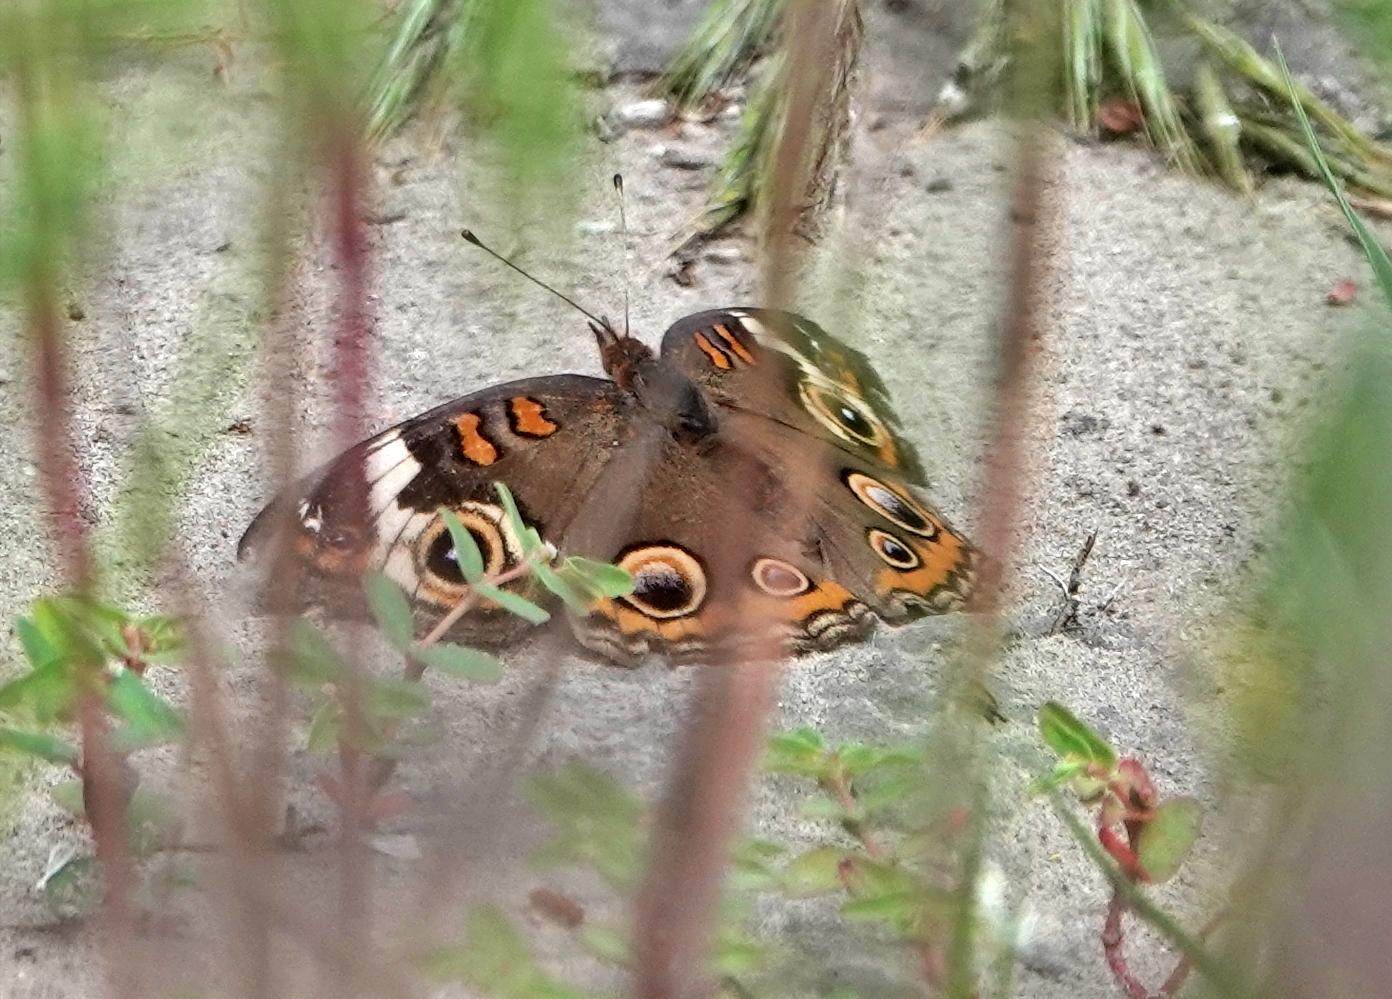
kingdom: Animalia
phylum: Arthropoda
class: Insecta
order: Lepidoptera
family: Nymphalidae
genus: Junonia
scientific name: Junonia coenia
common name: Common buckeye
